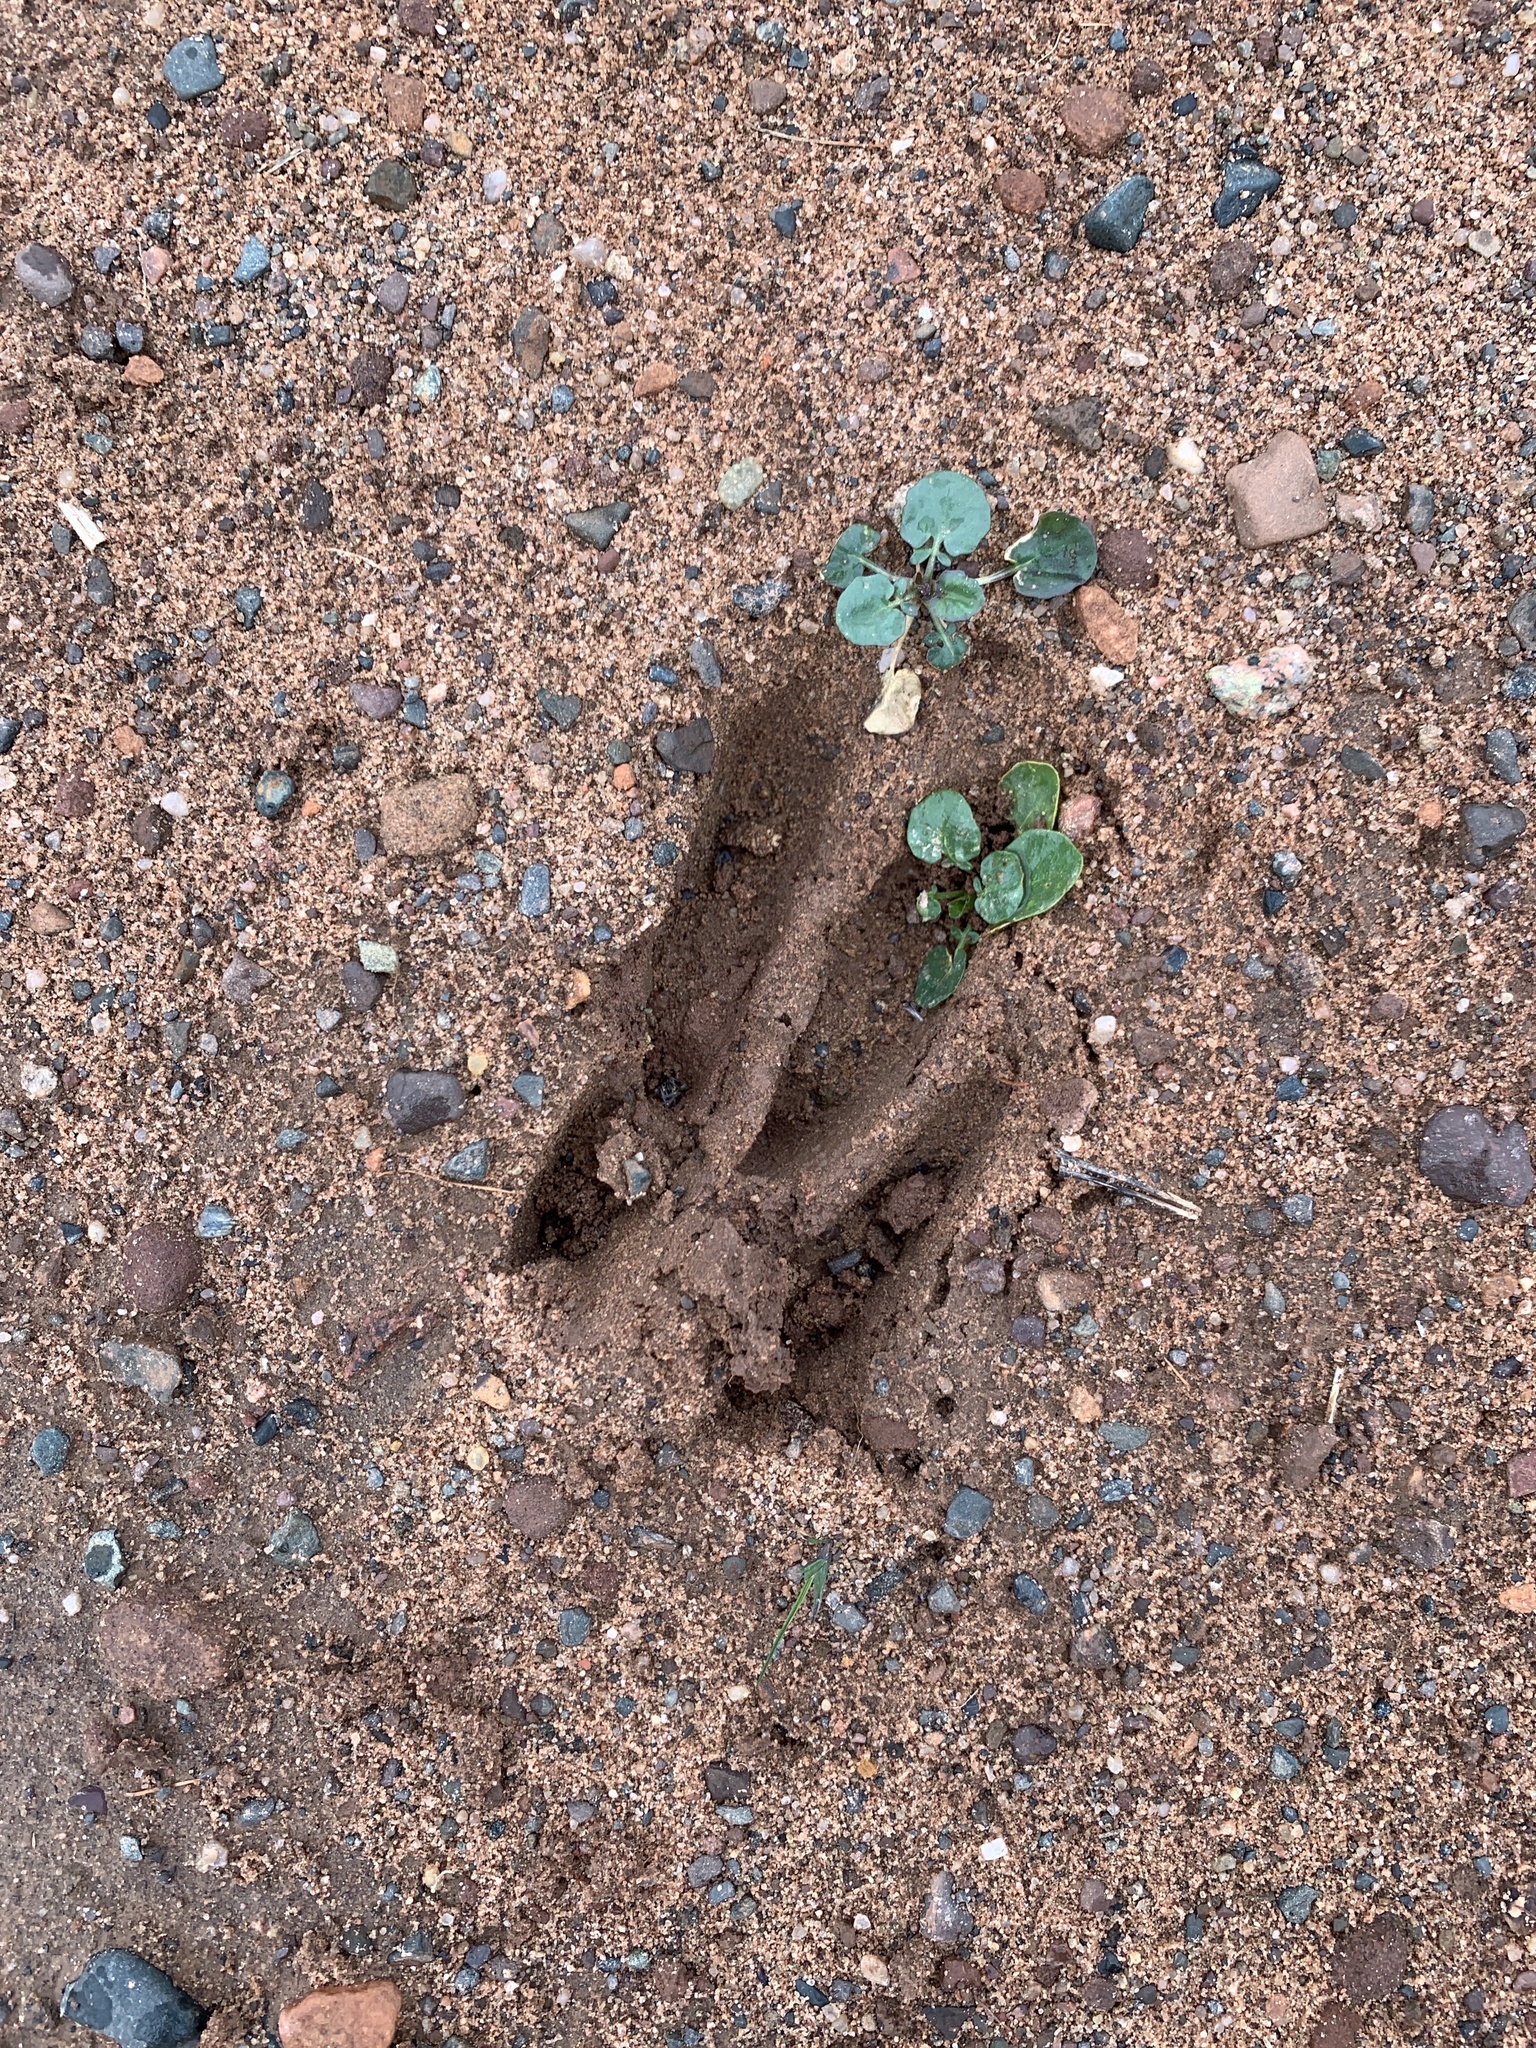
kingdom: Animalia
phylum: Chordata
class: Mammalia
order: Artiodactyla
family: Cervidae
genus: Odocoileus
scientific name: Odocoileus virginianus
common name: White-tailed deer
